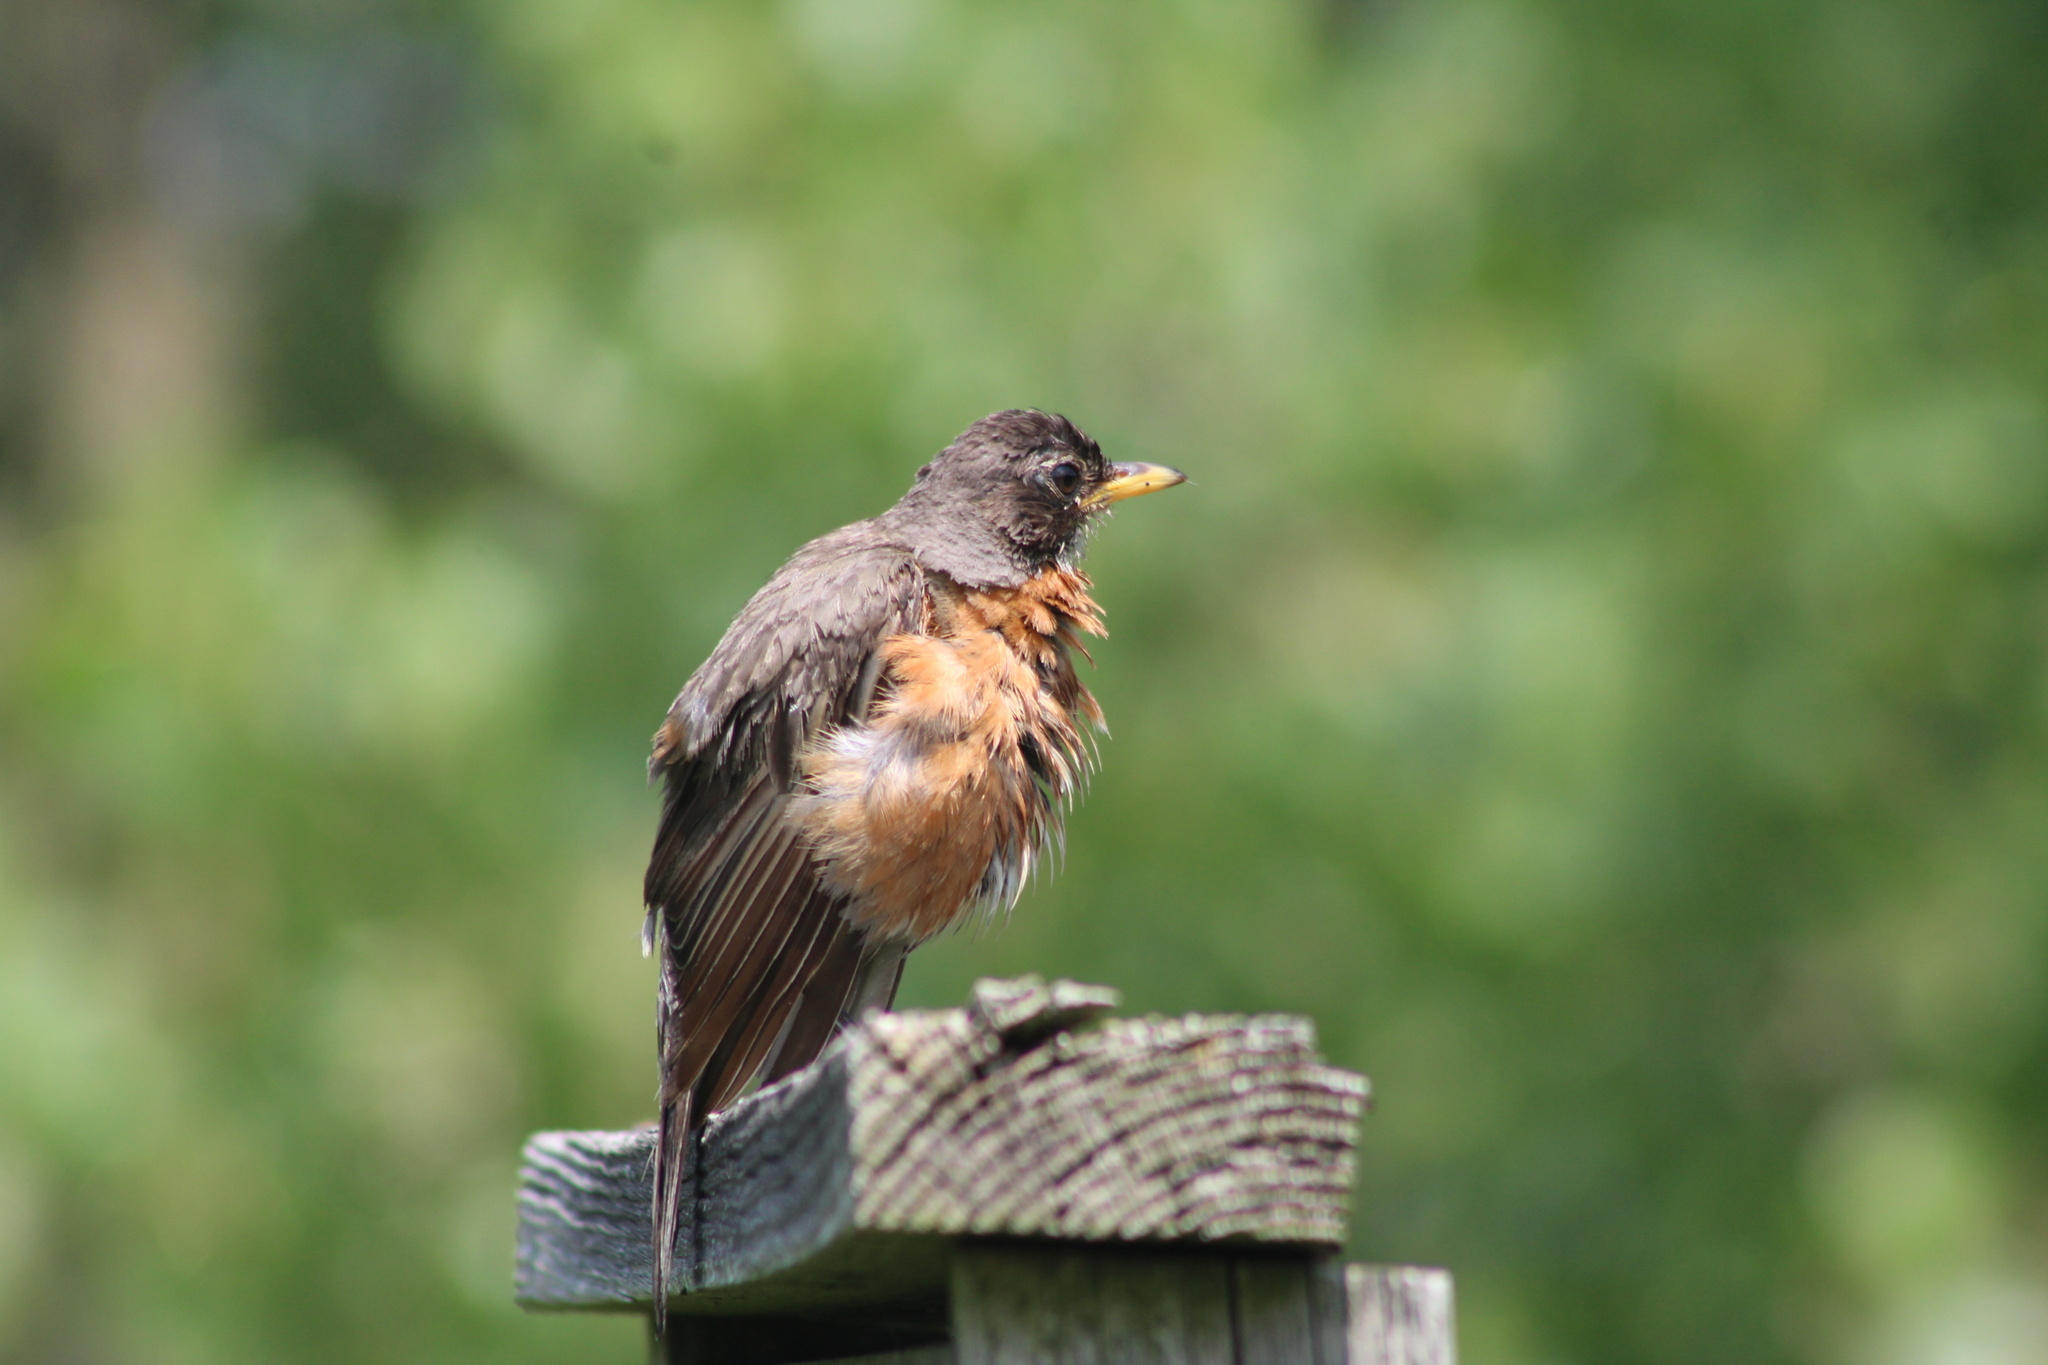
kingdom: Animalia
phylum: Chordata
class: Aves
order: Passeriformes
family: Turdidae
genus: Turdus
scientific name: Turdus migratorius
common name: American robin
